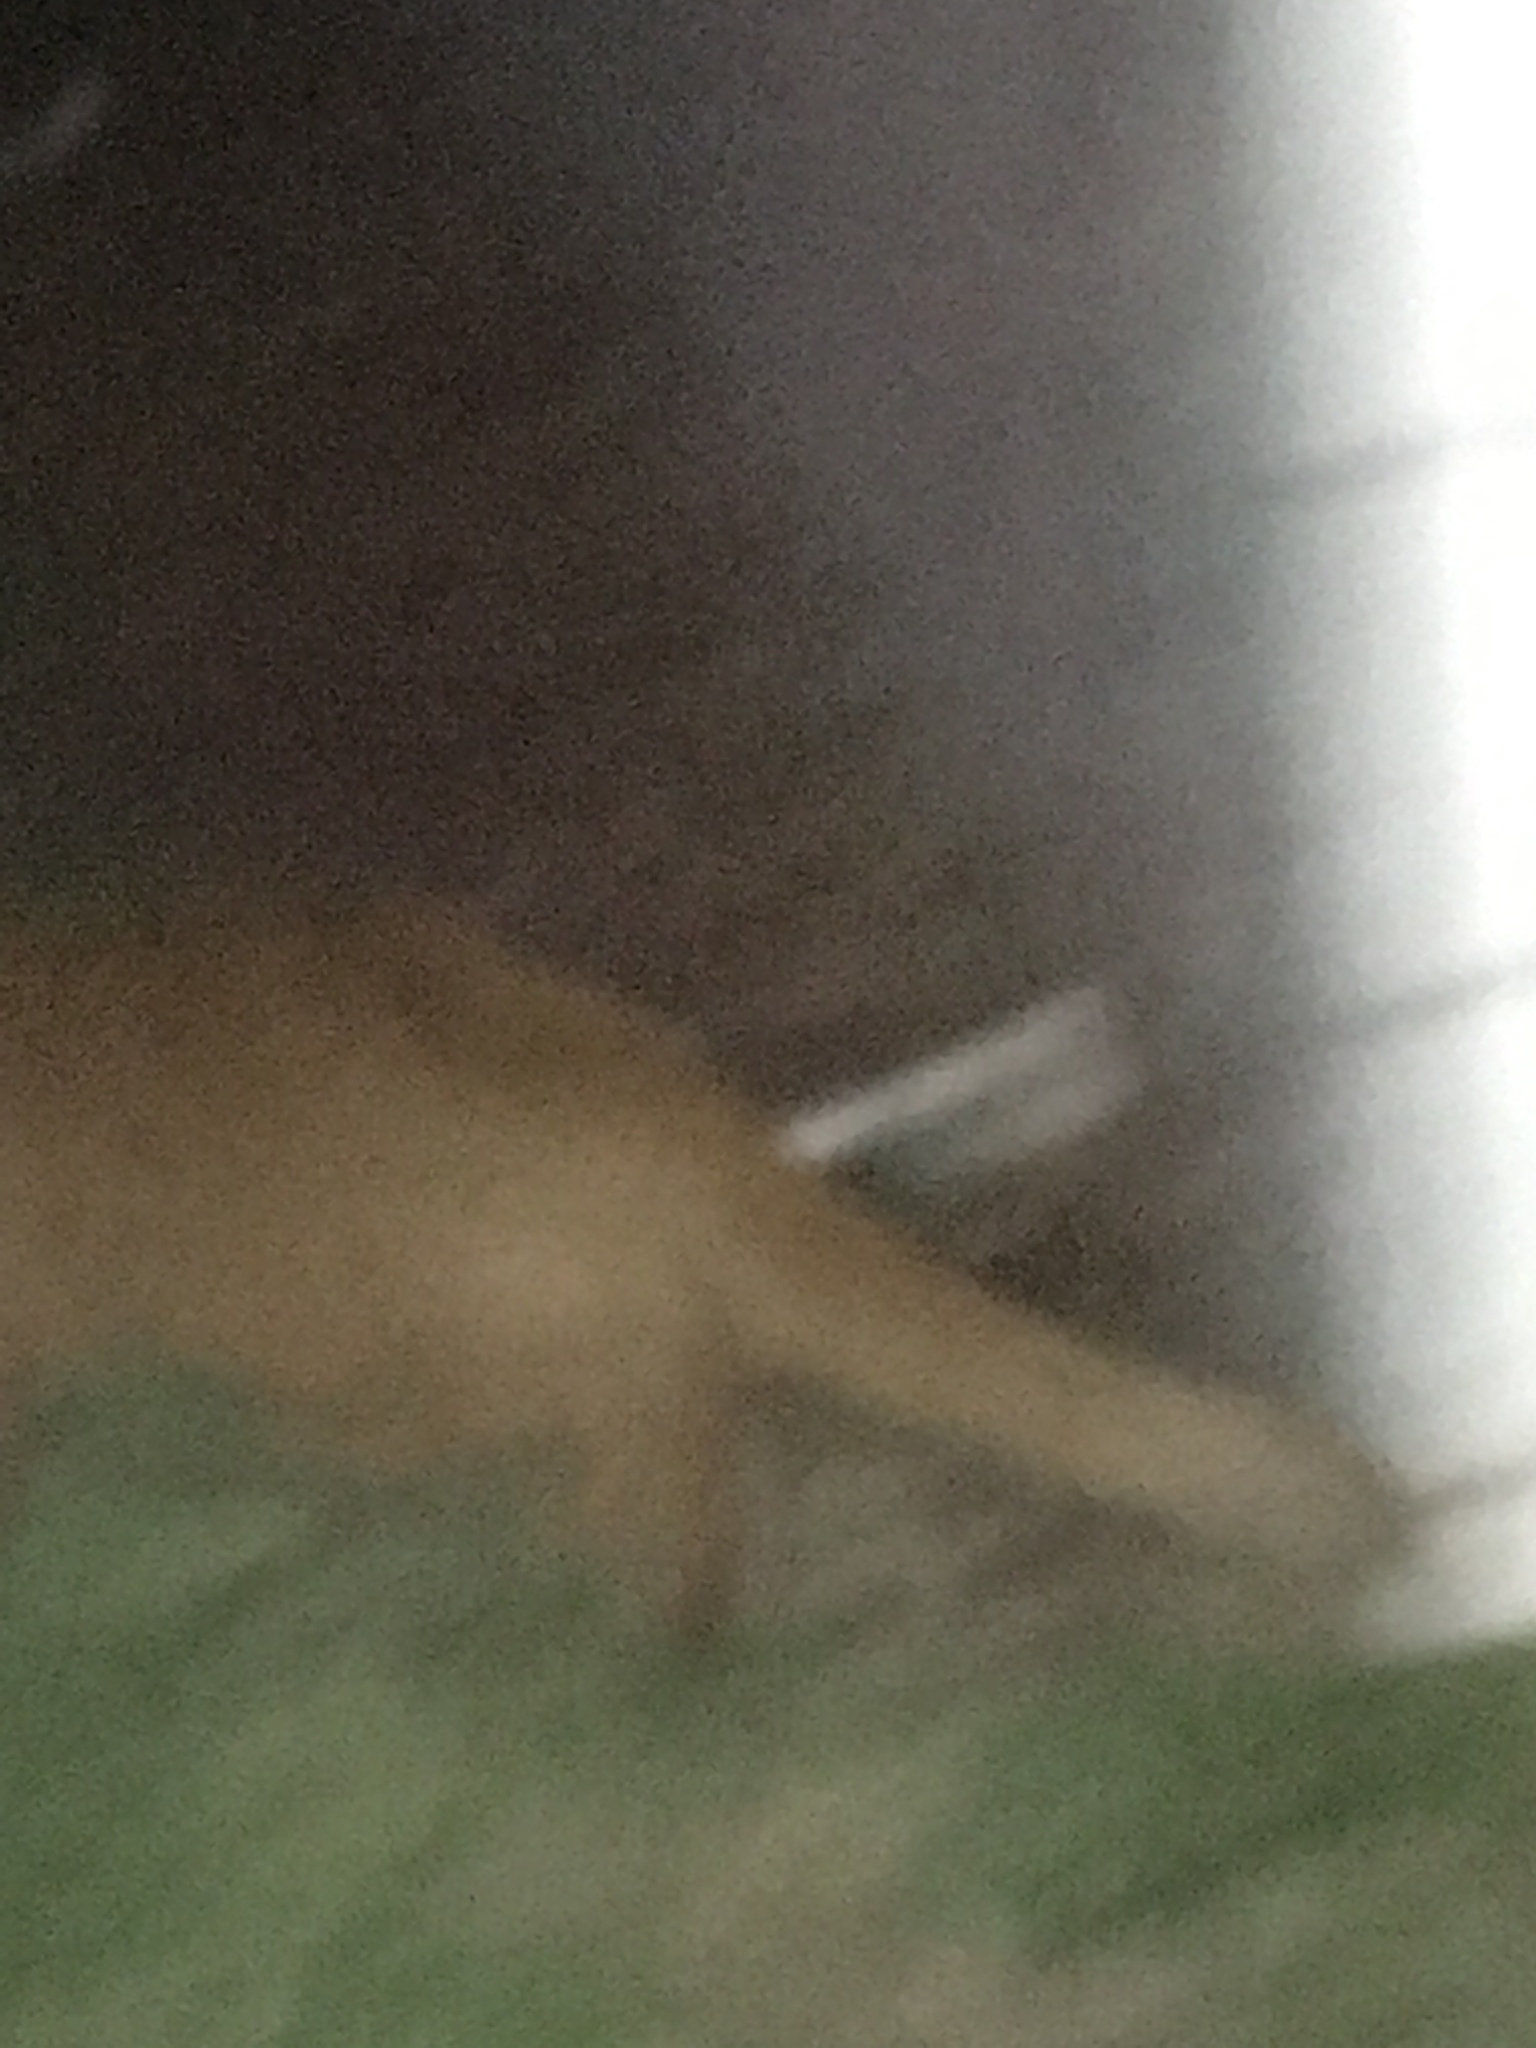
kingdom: Animalia
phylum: Chordata
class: Mammalia
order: Carnivora
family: Felidae
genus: Felis
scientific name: Felis catus
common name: Domestic cat
